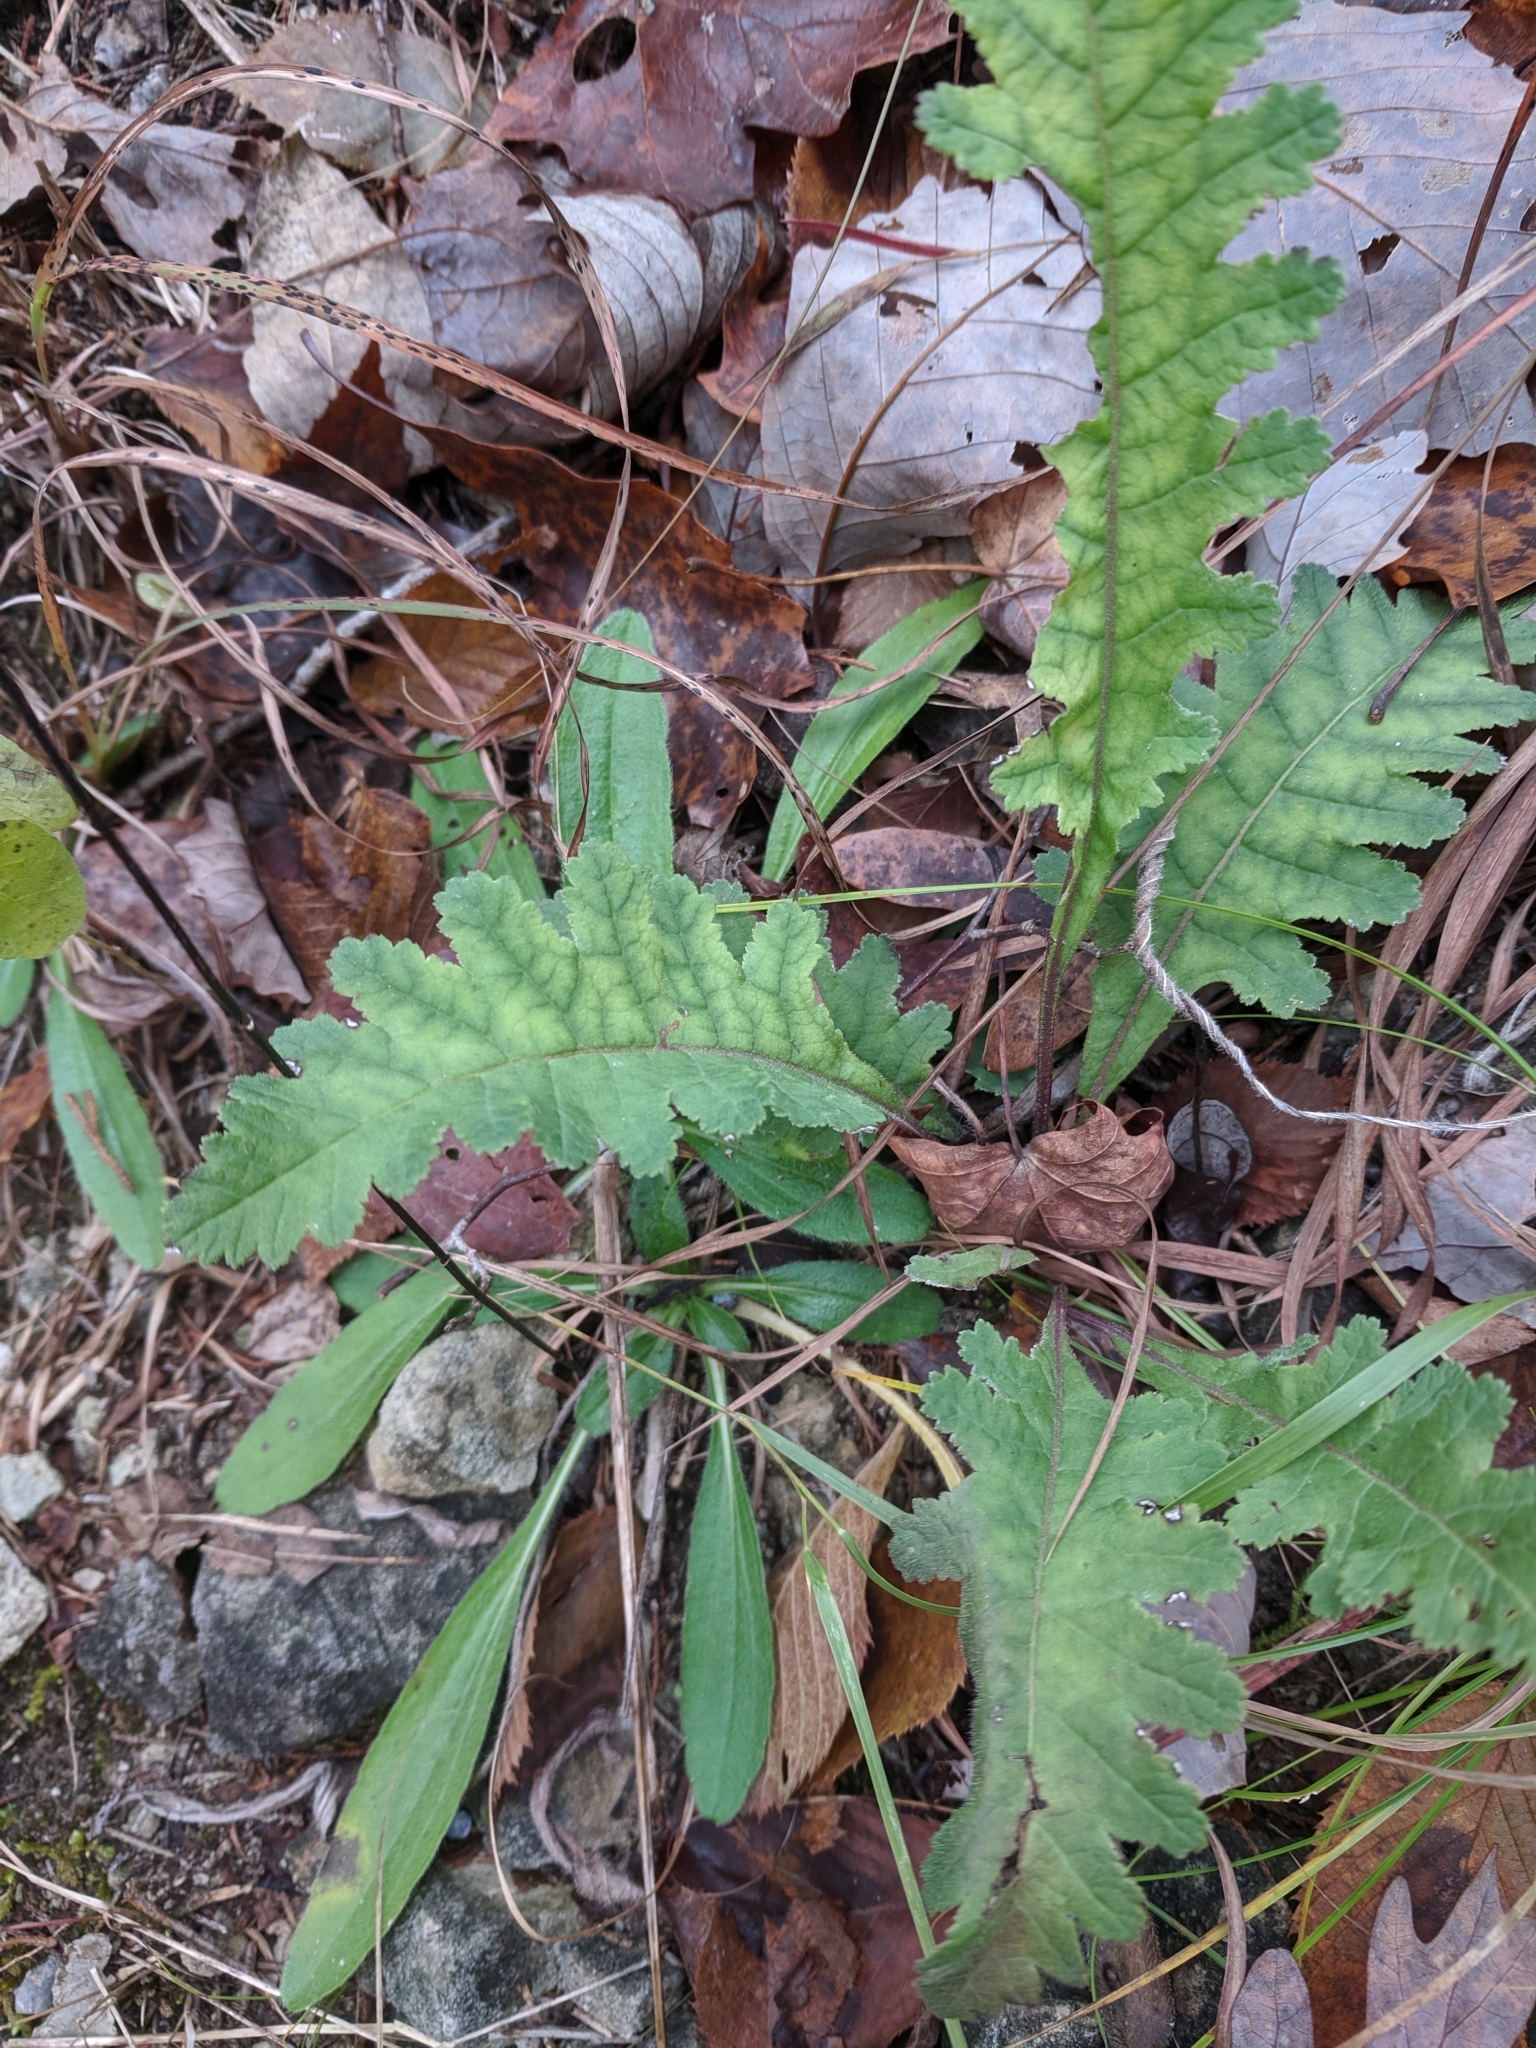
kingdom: Plantae
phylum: Tracheophyta
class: Magnoliopsida
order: Lamiales
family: Orobanchaceae
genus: Pedicularis
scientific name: Pedicularis canadensis
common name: Early lousewort
